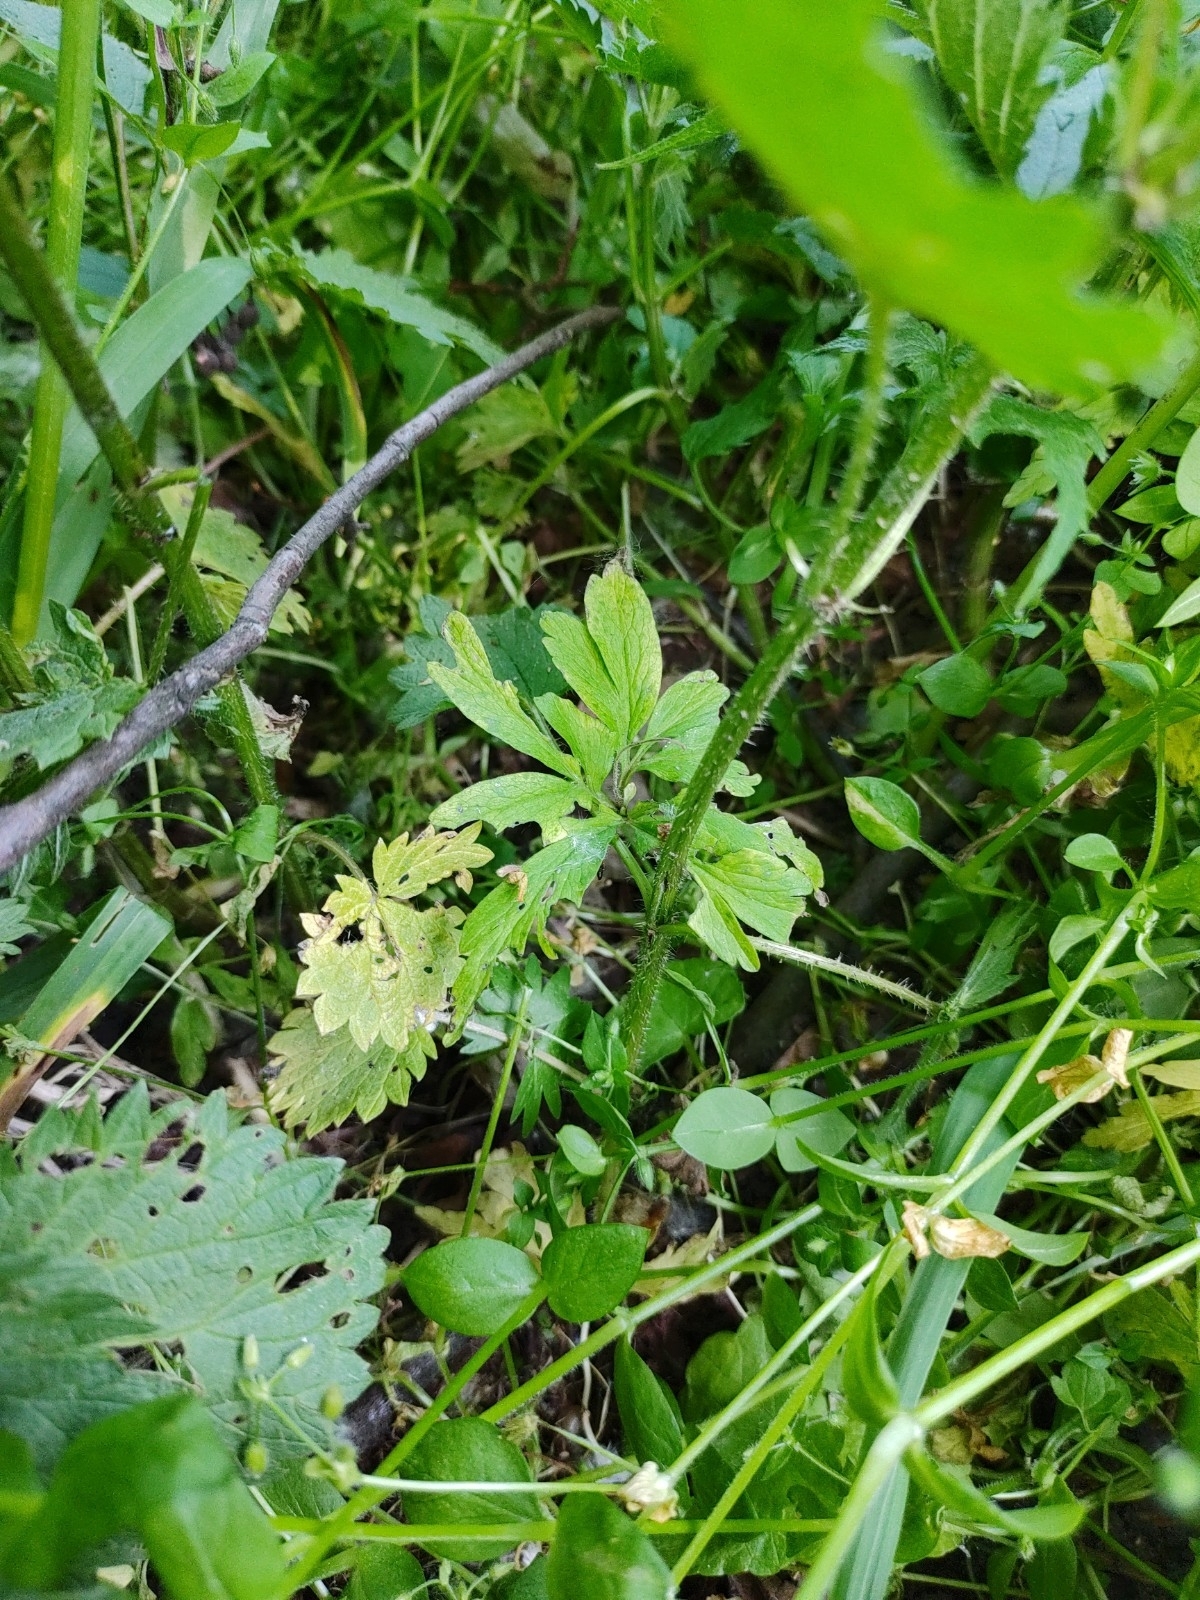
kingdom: Plantae
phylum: Tracheophyta
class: Magnoliopsida
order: Ranunculales
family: Ranunculaceae
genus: Anemone
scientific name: Anemone ranunculoides
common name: Yellow anemone
